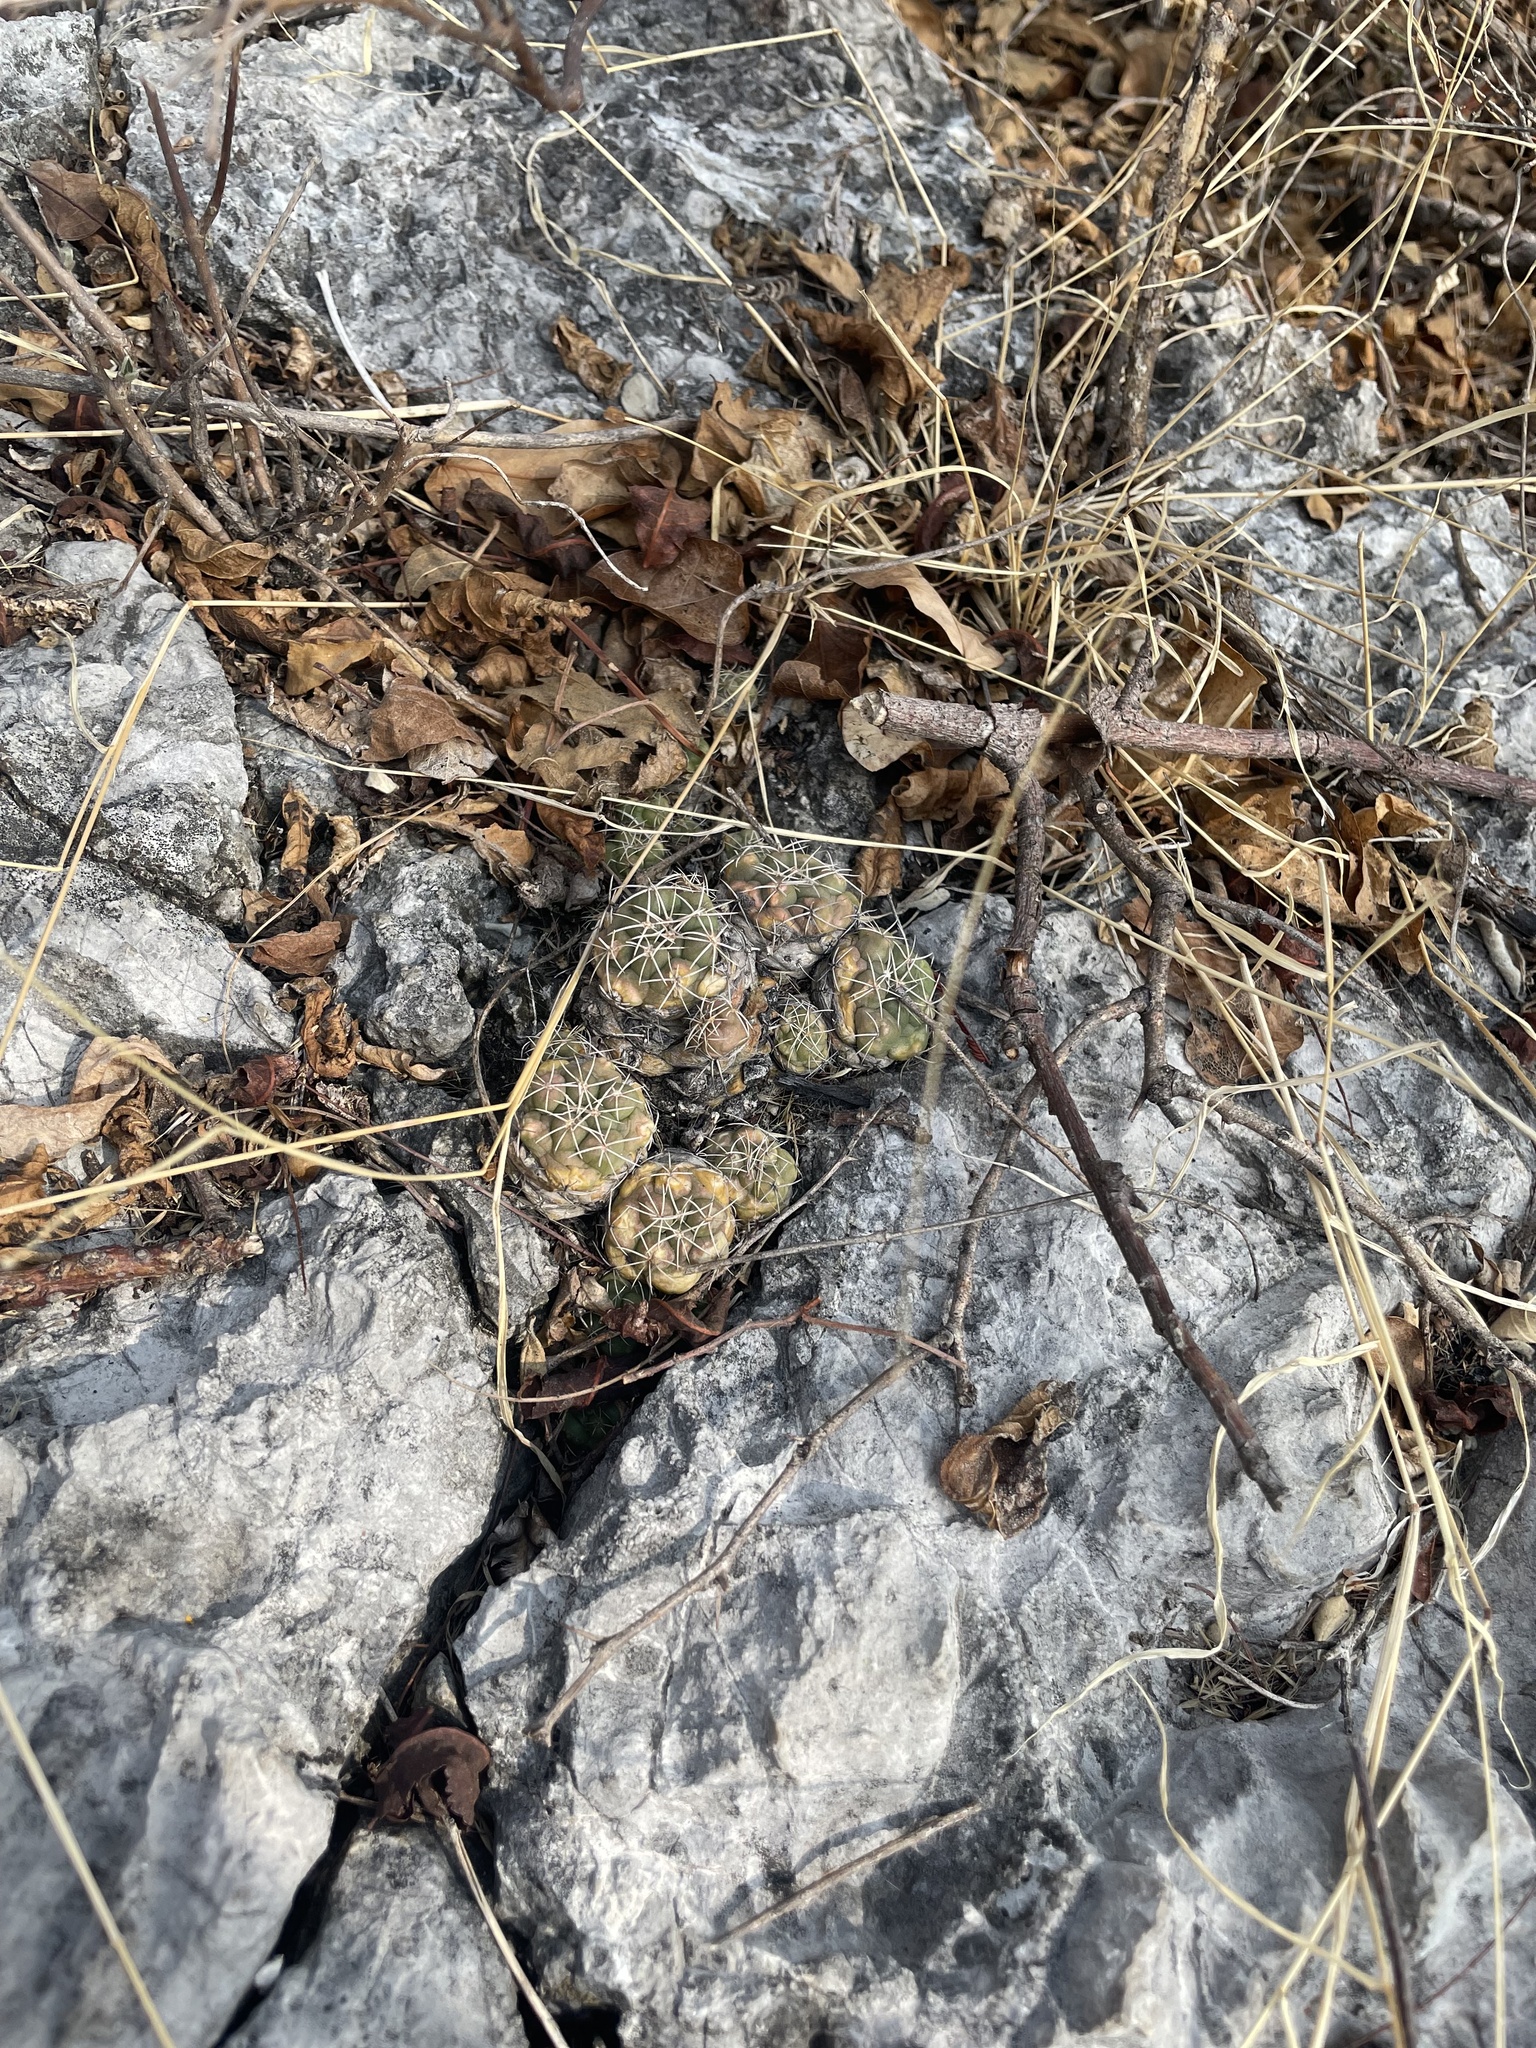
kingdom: Plantae
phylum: Tracheophyta
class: Magnoliopsida
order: Caryophyllales
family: Cactaceae
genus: Coryphantha
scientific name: Coryphantha elephantidens
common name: Elephant's tooth
